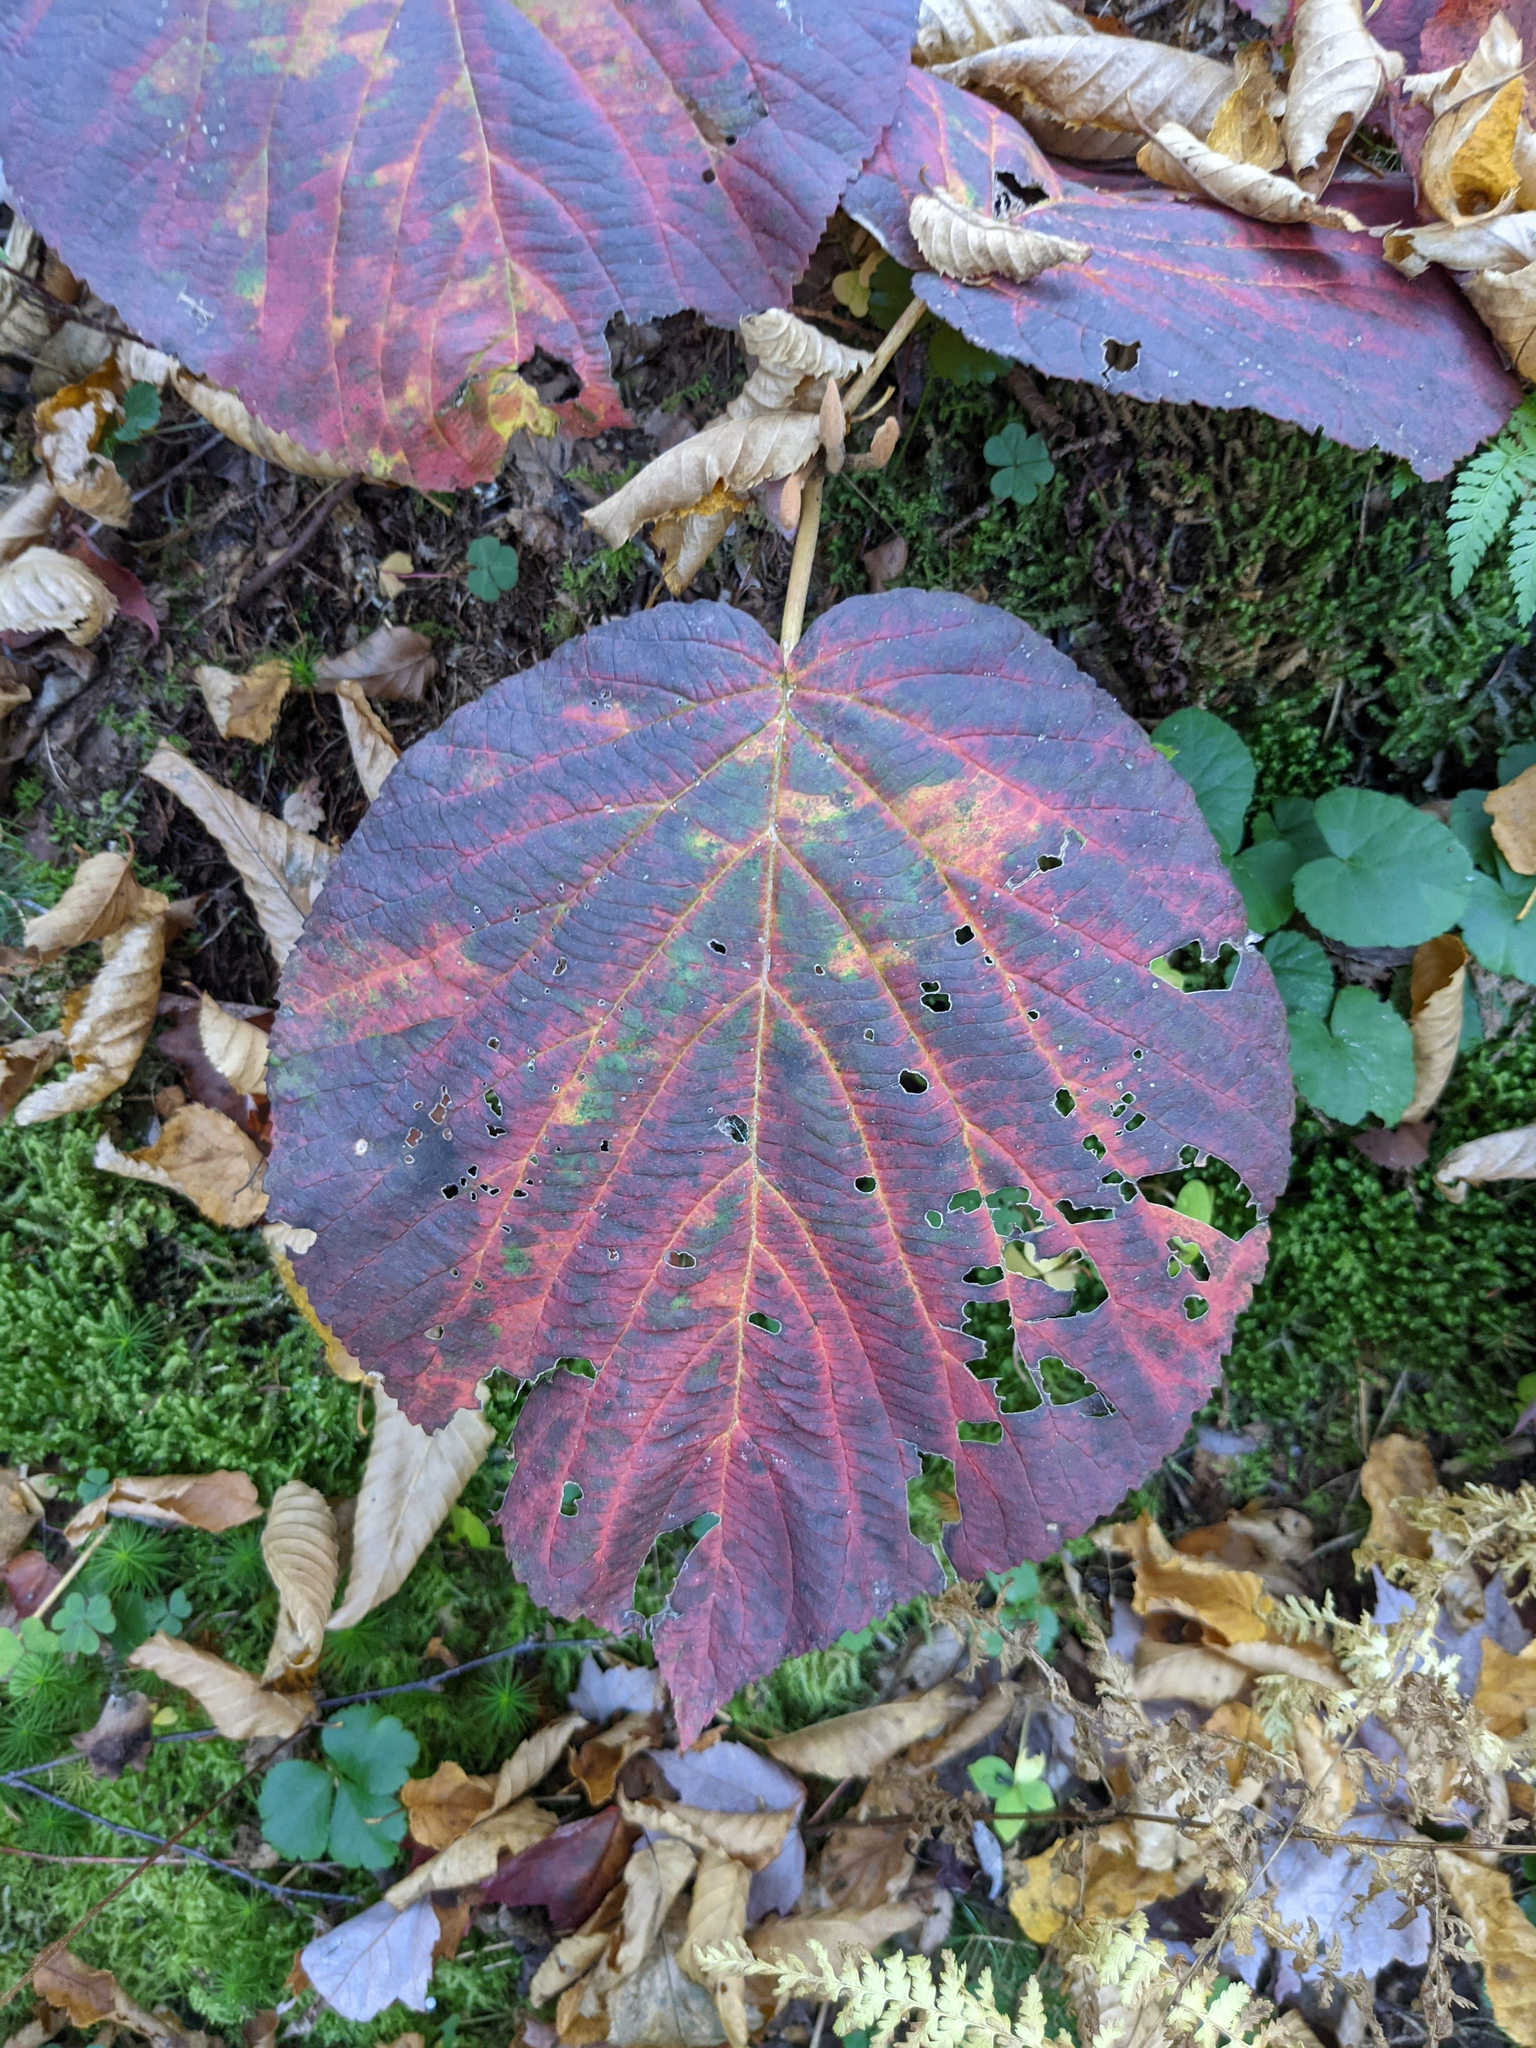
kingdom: Plantae
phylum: Tracheophyta
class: Magnoliopsida
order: Dipsacales
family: Viburnaceae
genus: Viburnum
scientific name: Viburnum lantanoides
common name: Hobblebush
